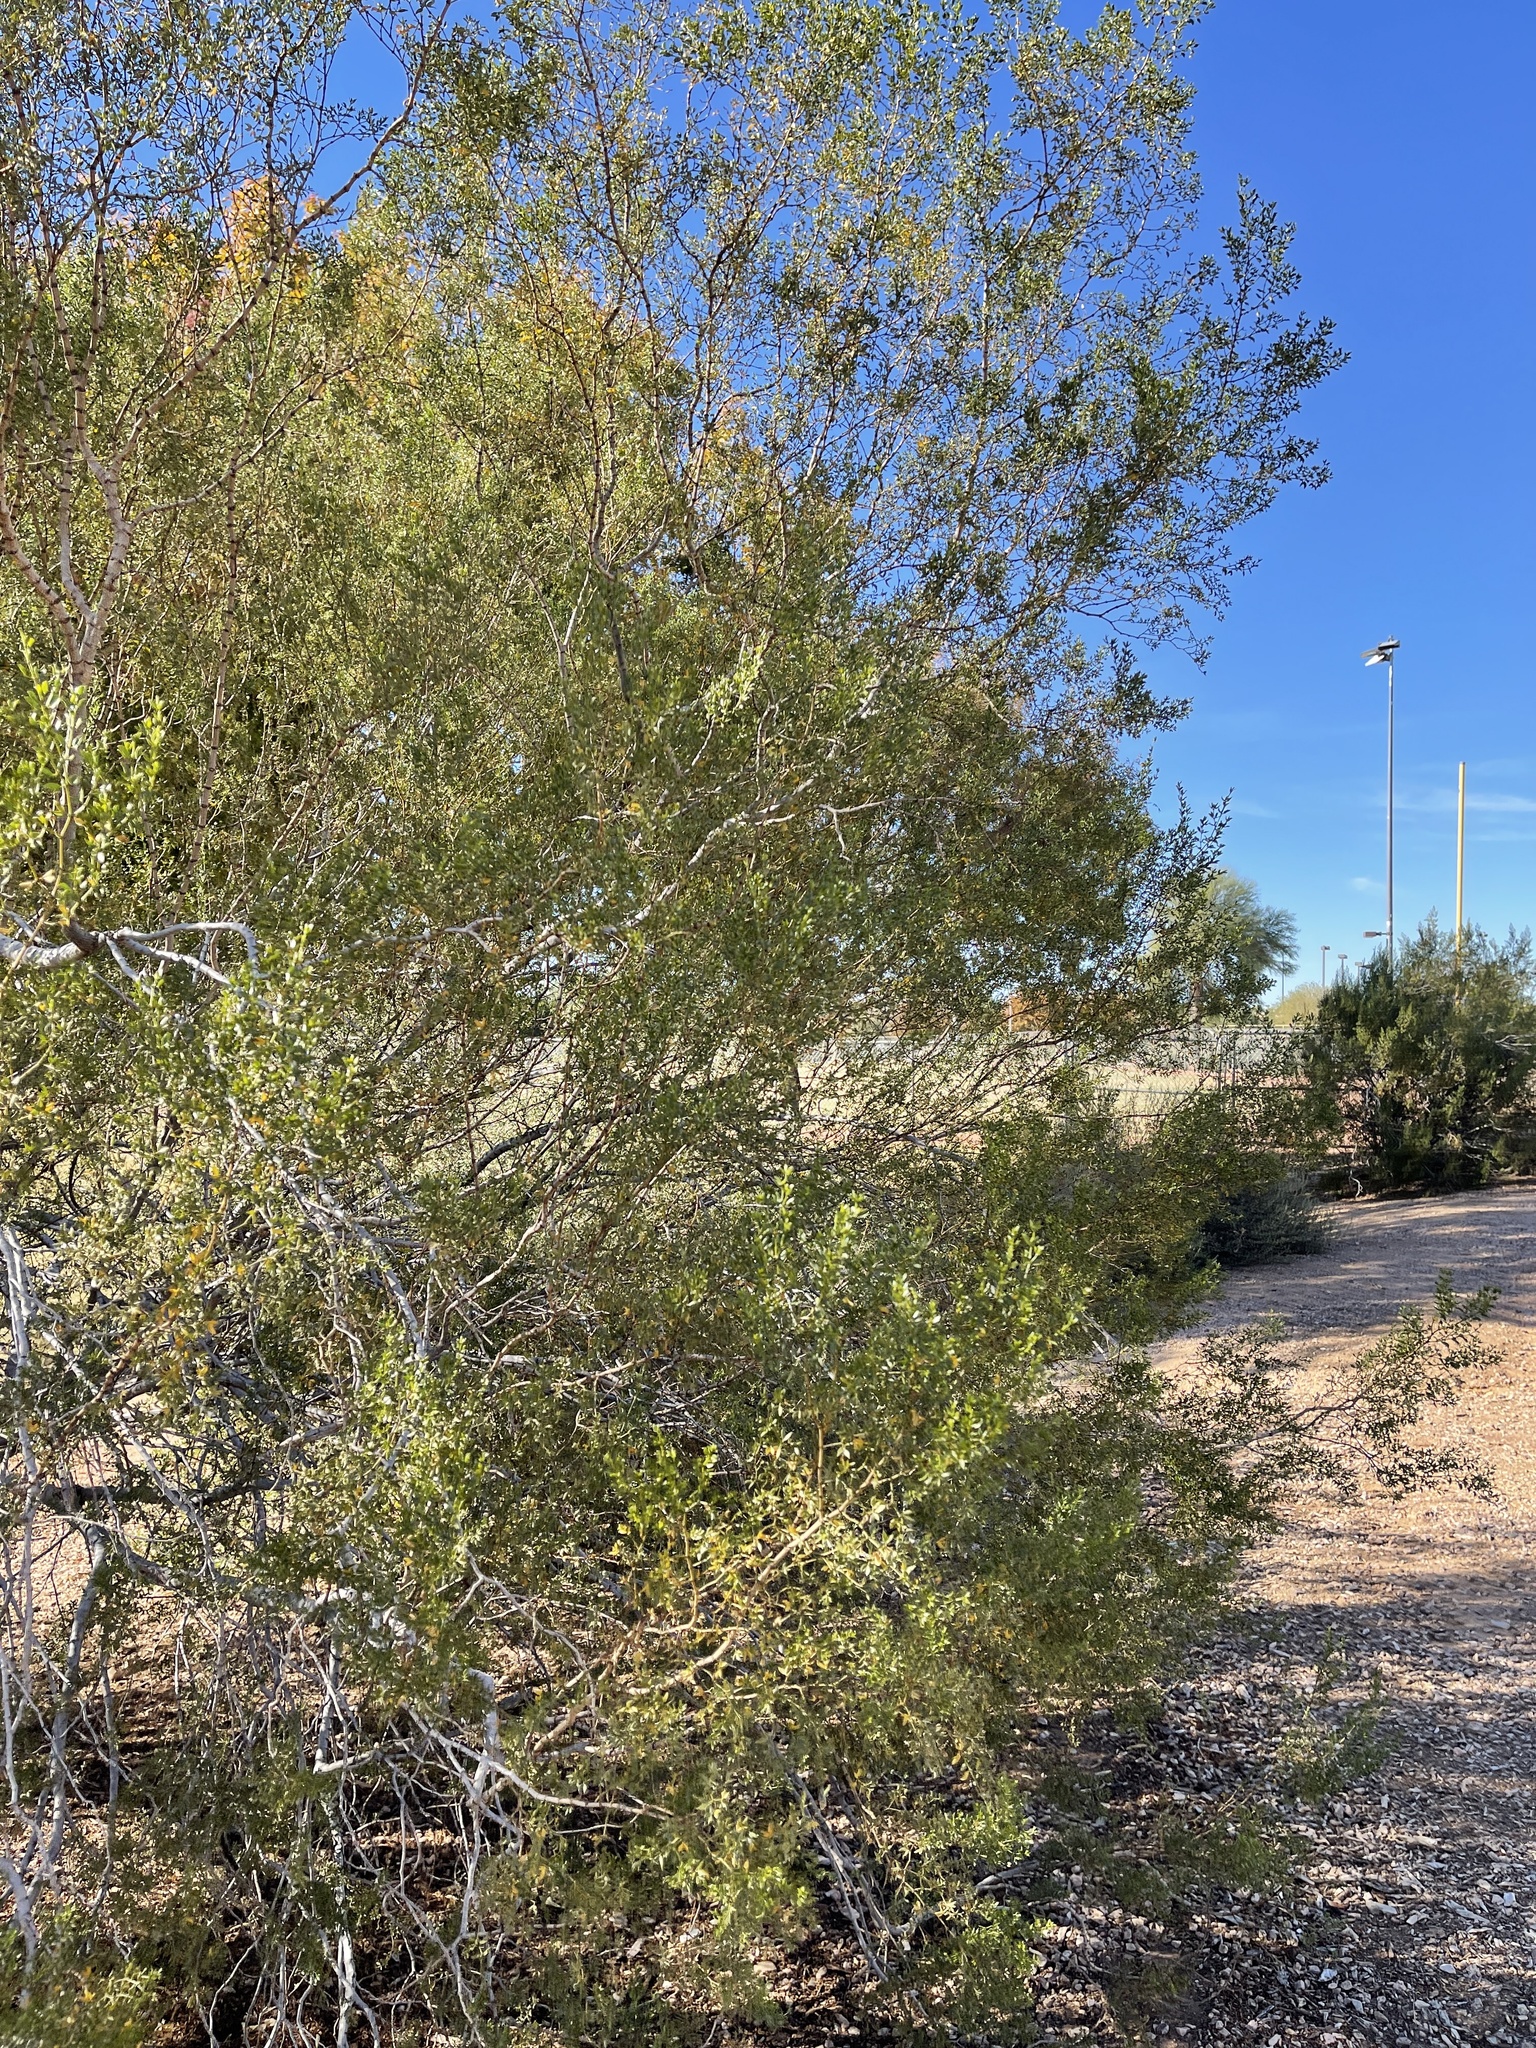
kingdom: Plantae
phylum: Tracheophyta
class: Magnoliopsida
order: Zygophyllales
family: Zygophyllaceae
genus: Larrea
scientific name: Larrea tridentata
